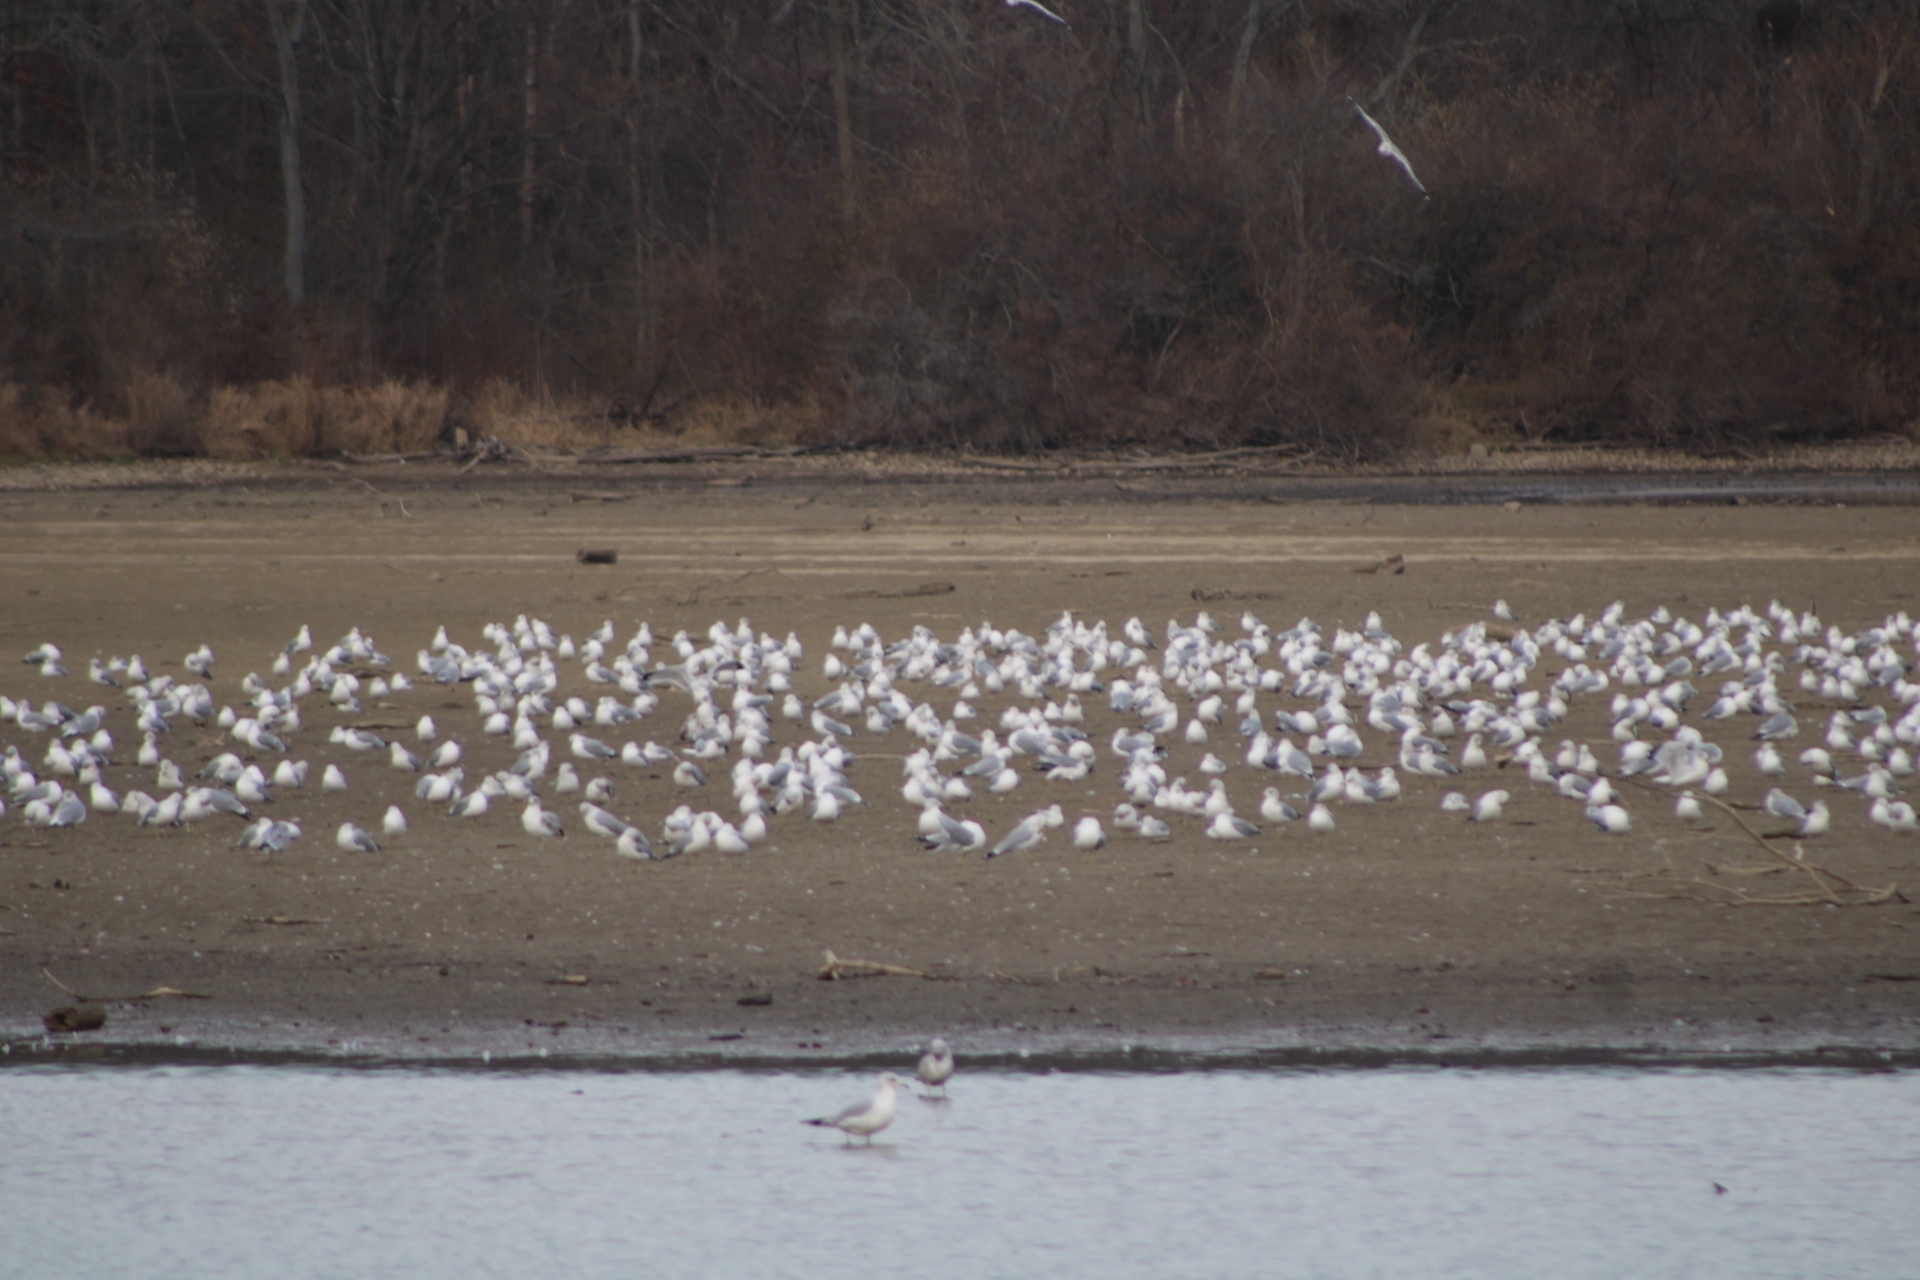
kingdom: Animalia
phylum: Chordata
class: Aves
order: Charadriiformes
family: Laridae
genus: Larus
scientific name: Larus delawarensis
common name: Ring-billed gull
